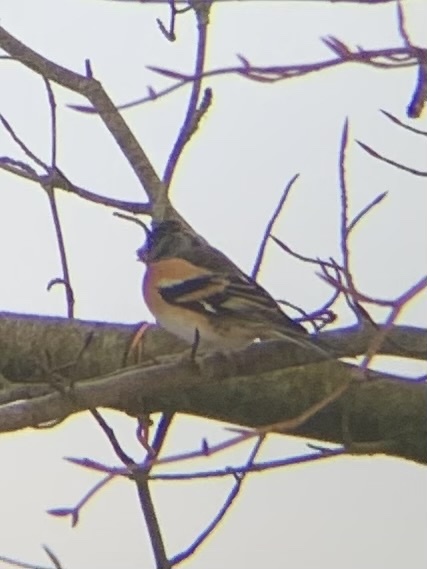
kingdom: Animalia
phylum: Chordata
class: Aves
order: Passeriformes
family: Fringillidae
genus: Fringilla
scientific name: Fringilla montifringilla
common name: Brambling
